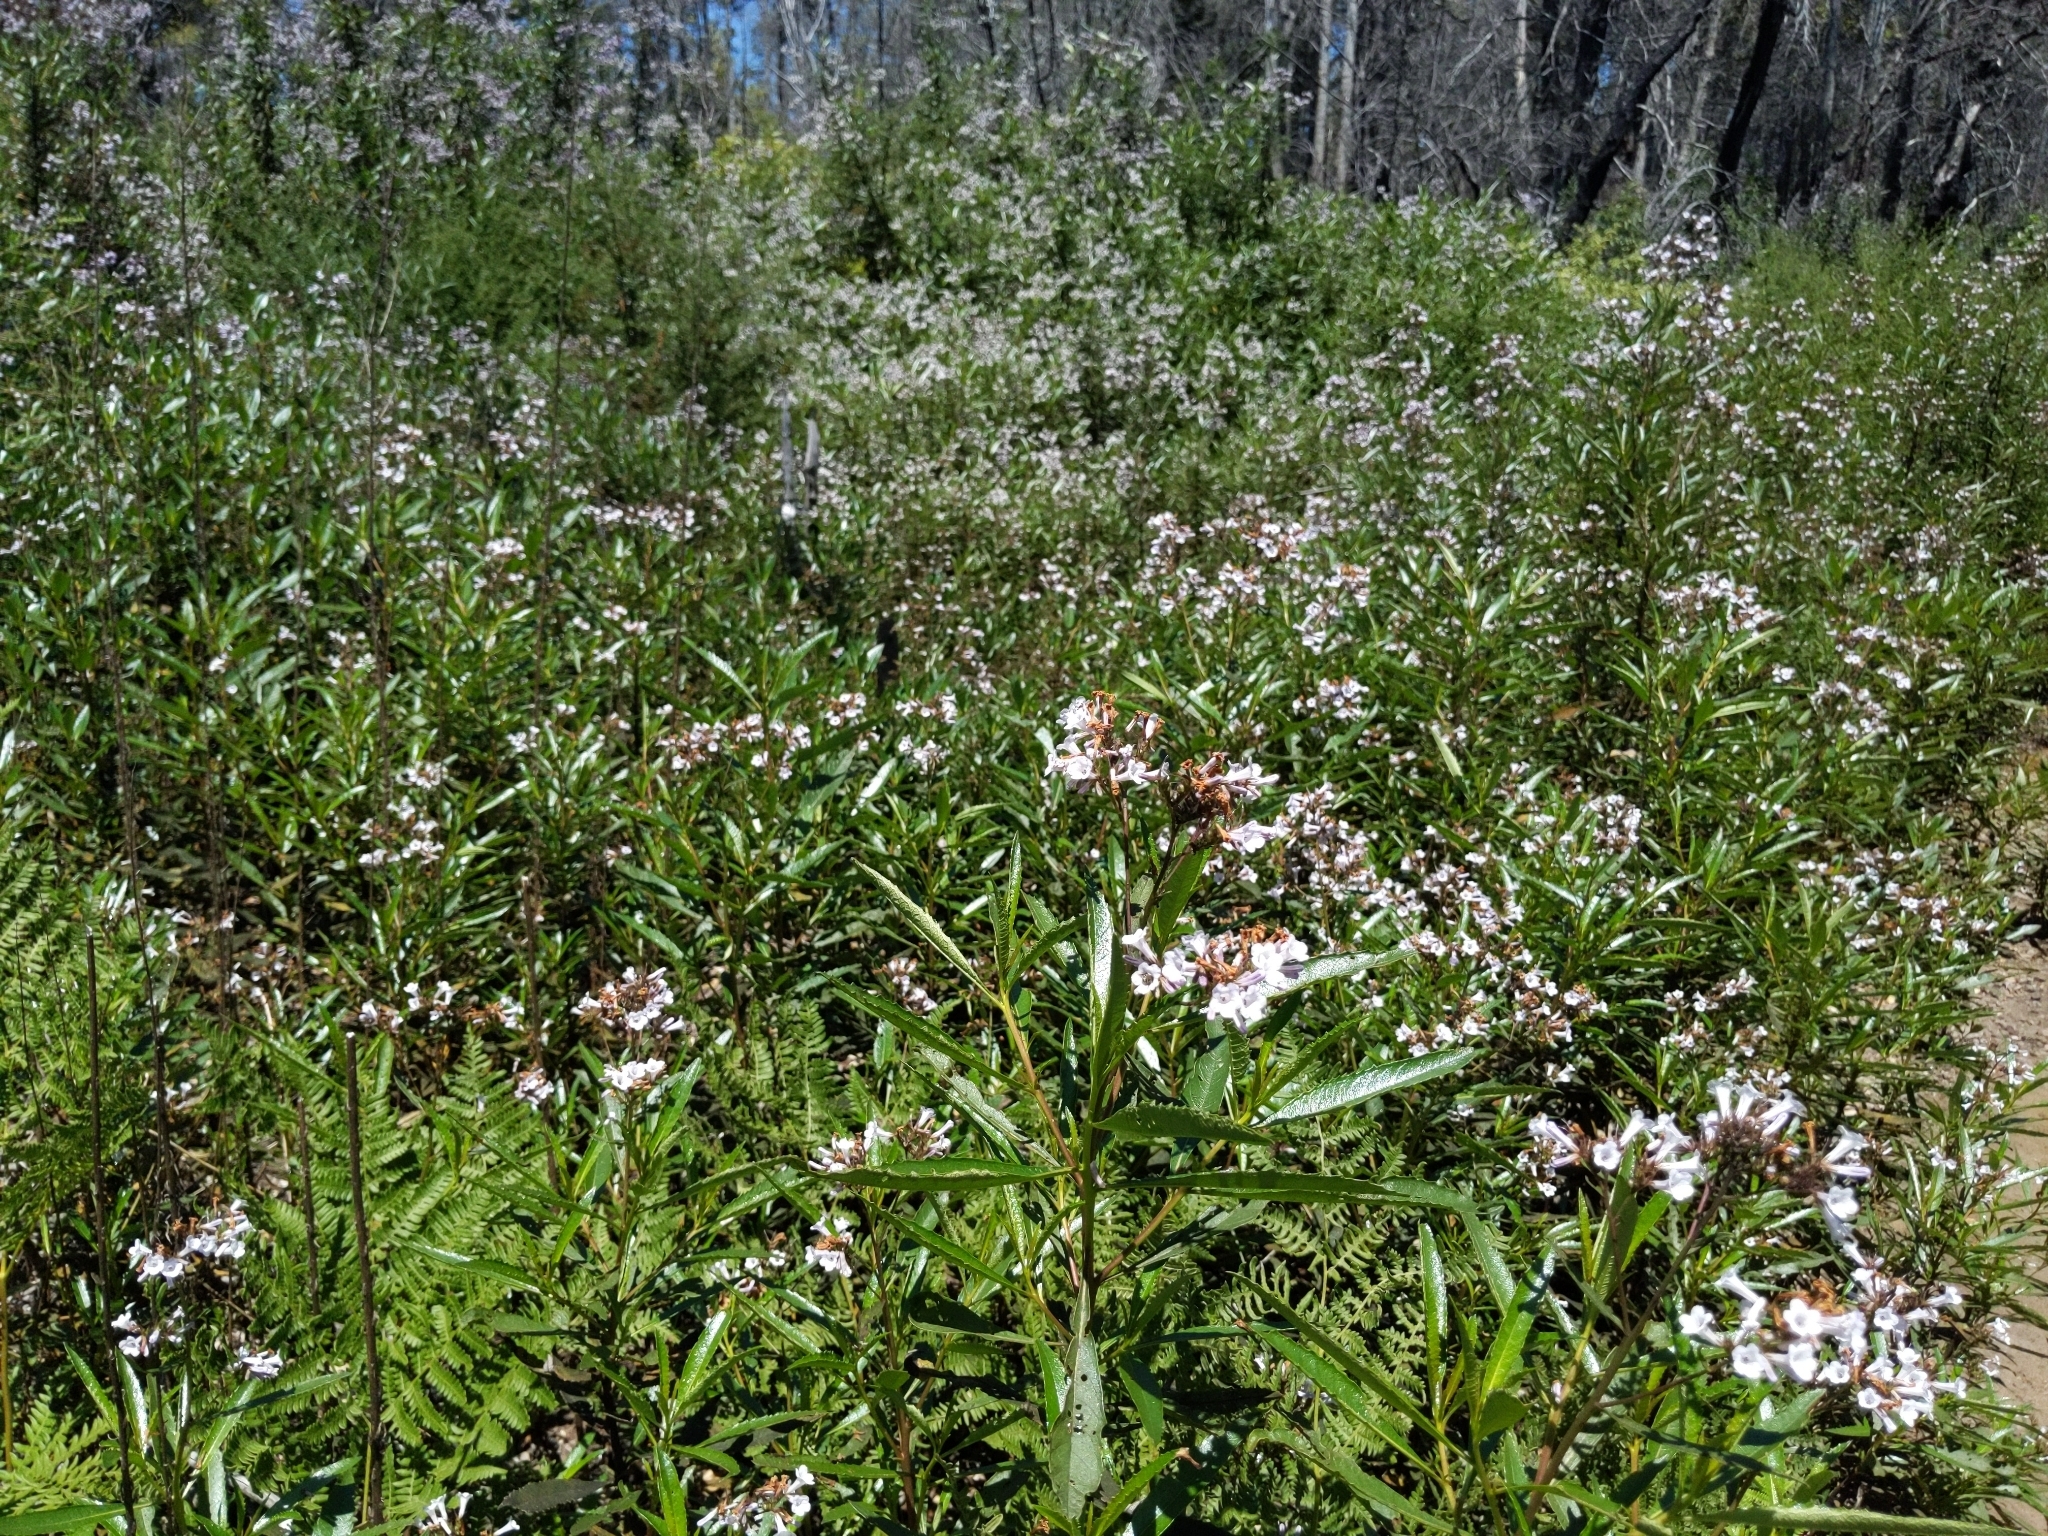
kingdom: Plantae
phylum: Tracheophyta
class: Magnoliopsida
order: Boraginales
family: Namaceae
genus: Eriodictyon
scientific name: Eriodictyon californicum
